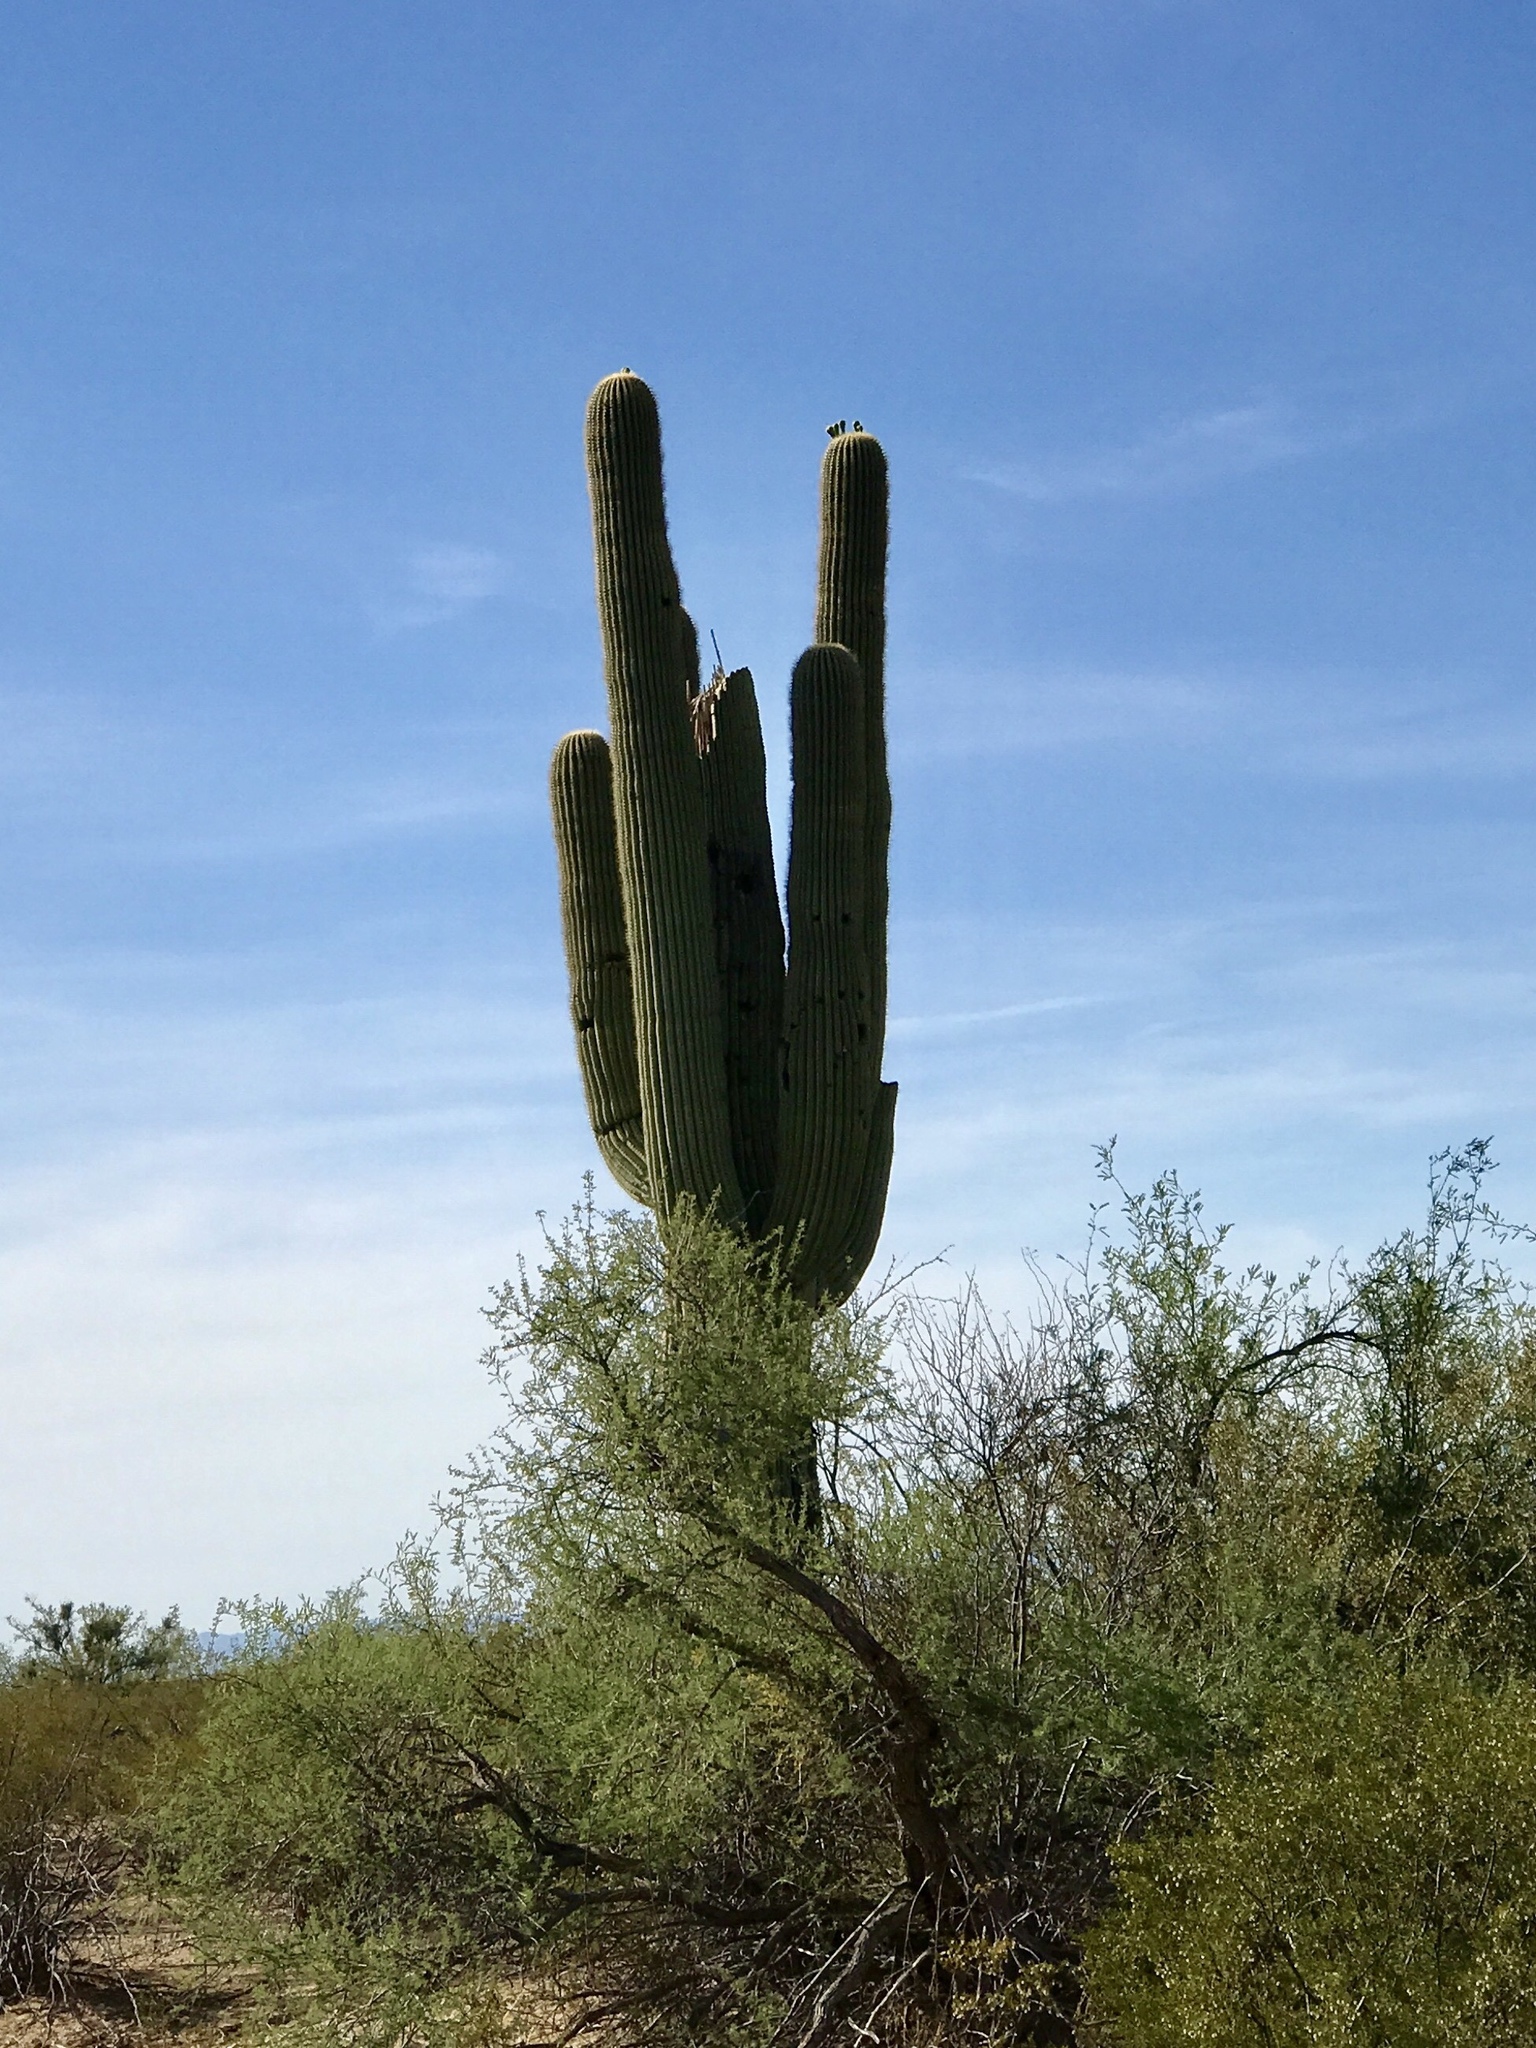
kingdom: Plantae
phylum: Tracheophyta
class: Magnoliopsida
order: Caryophyllales
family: Cactaceae
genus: Carnegiea
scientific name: Carnegiea gigantea
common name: Saguaro
